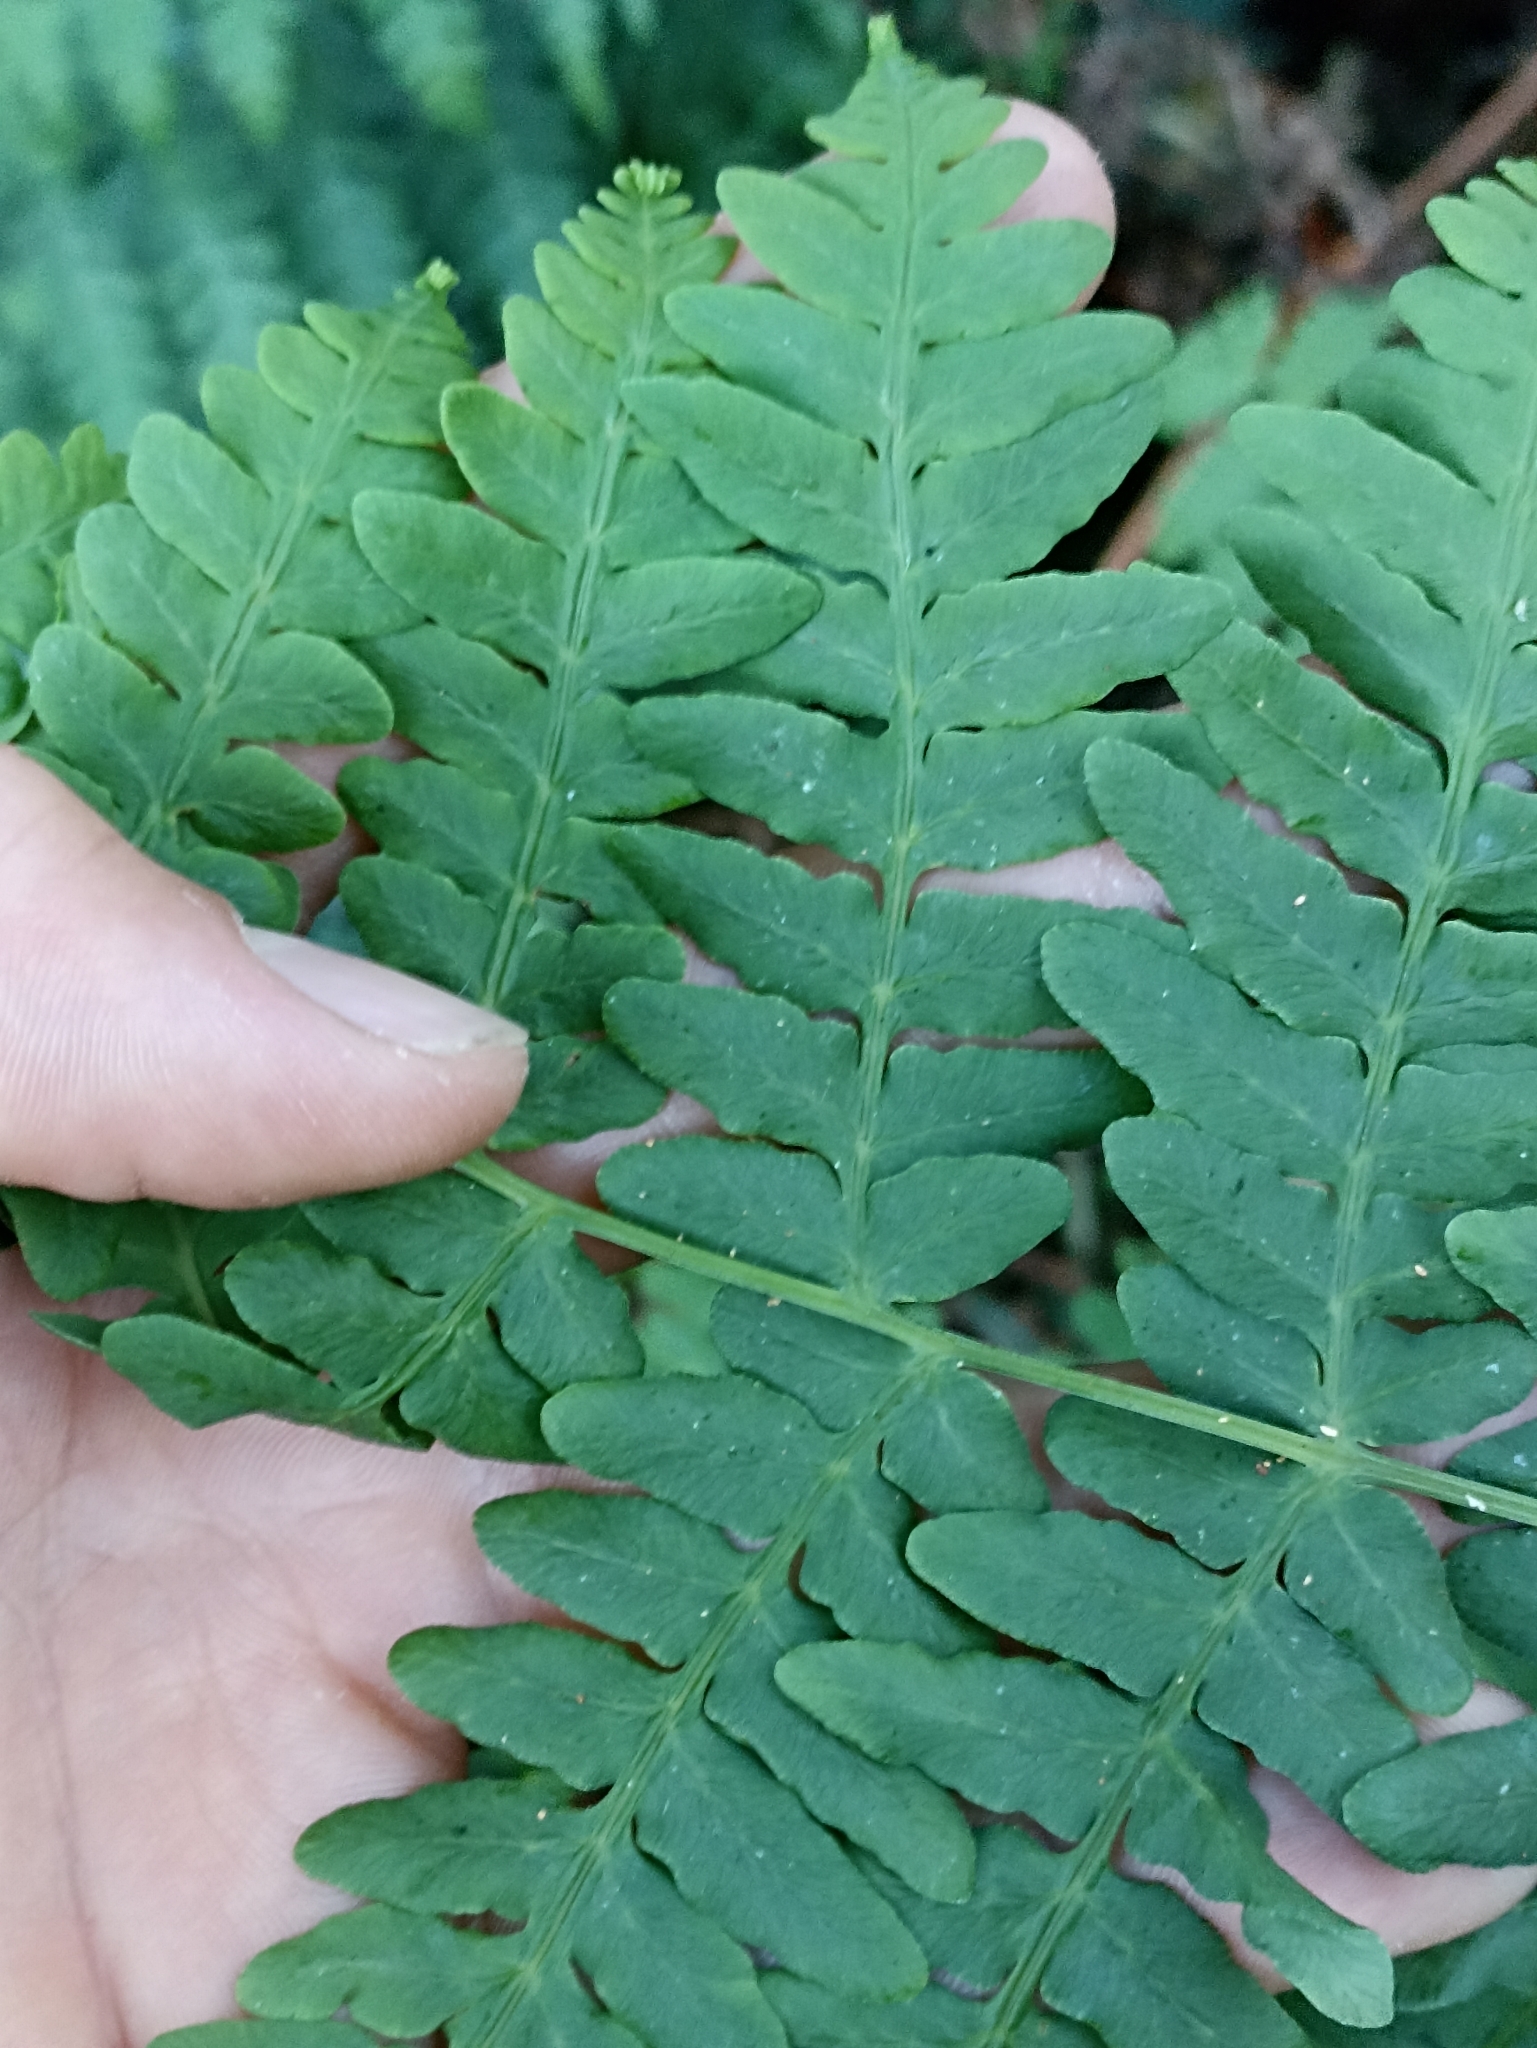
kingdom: Plantae
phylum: Tracheophyta
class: Polypodiopsida
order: Polypodiales
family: Dennstaedtiaceae
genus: Histiopteris
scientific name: Histiopteris incisa
